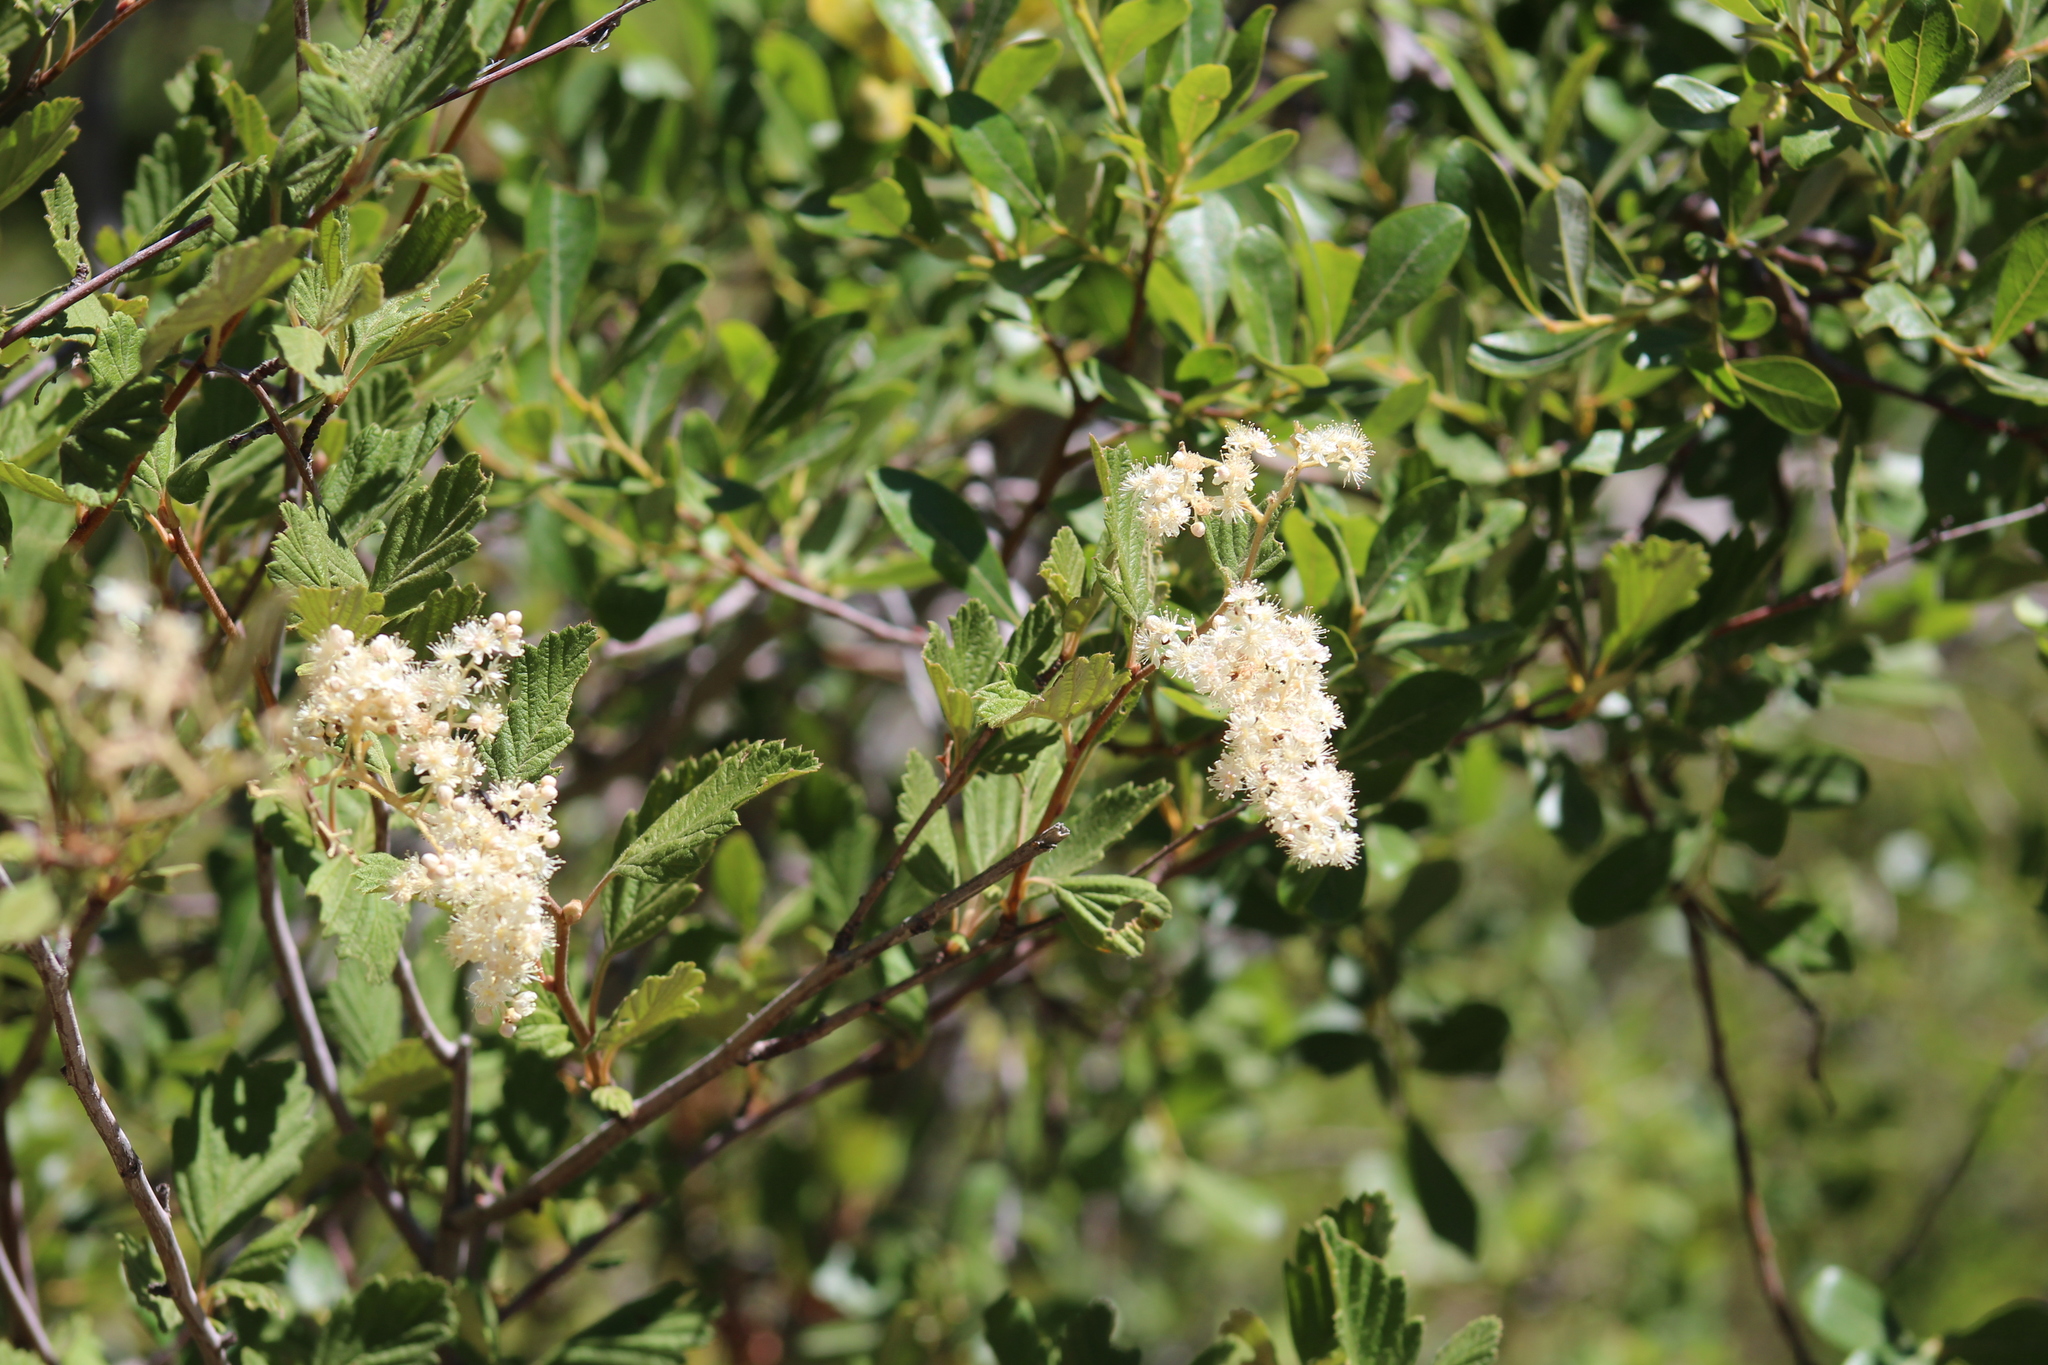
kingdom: Plantae
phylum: Tracheophyta
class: Magnoliopsida
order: Rosales
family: Rosaceae
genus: Holodiscus
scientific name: Holodiscus discolor
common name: Oceanspray
